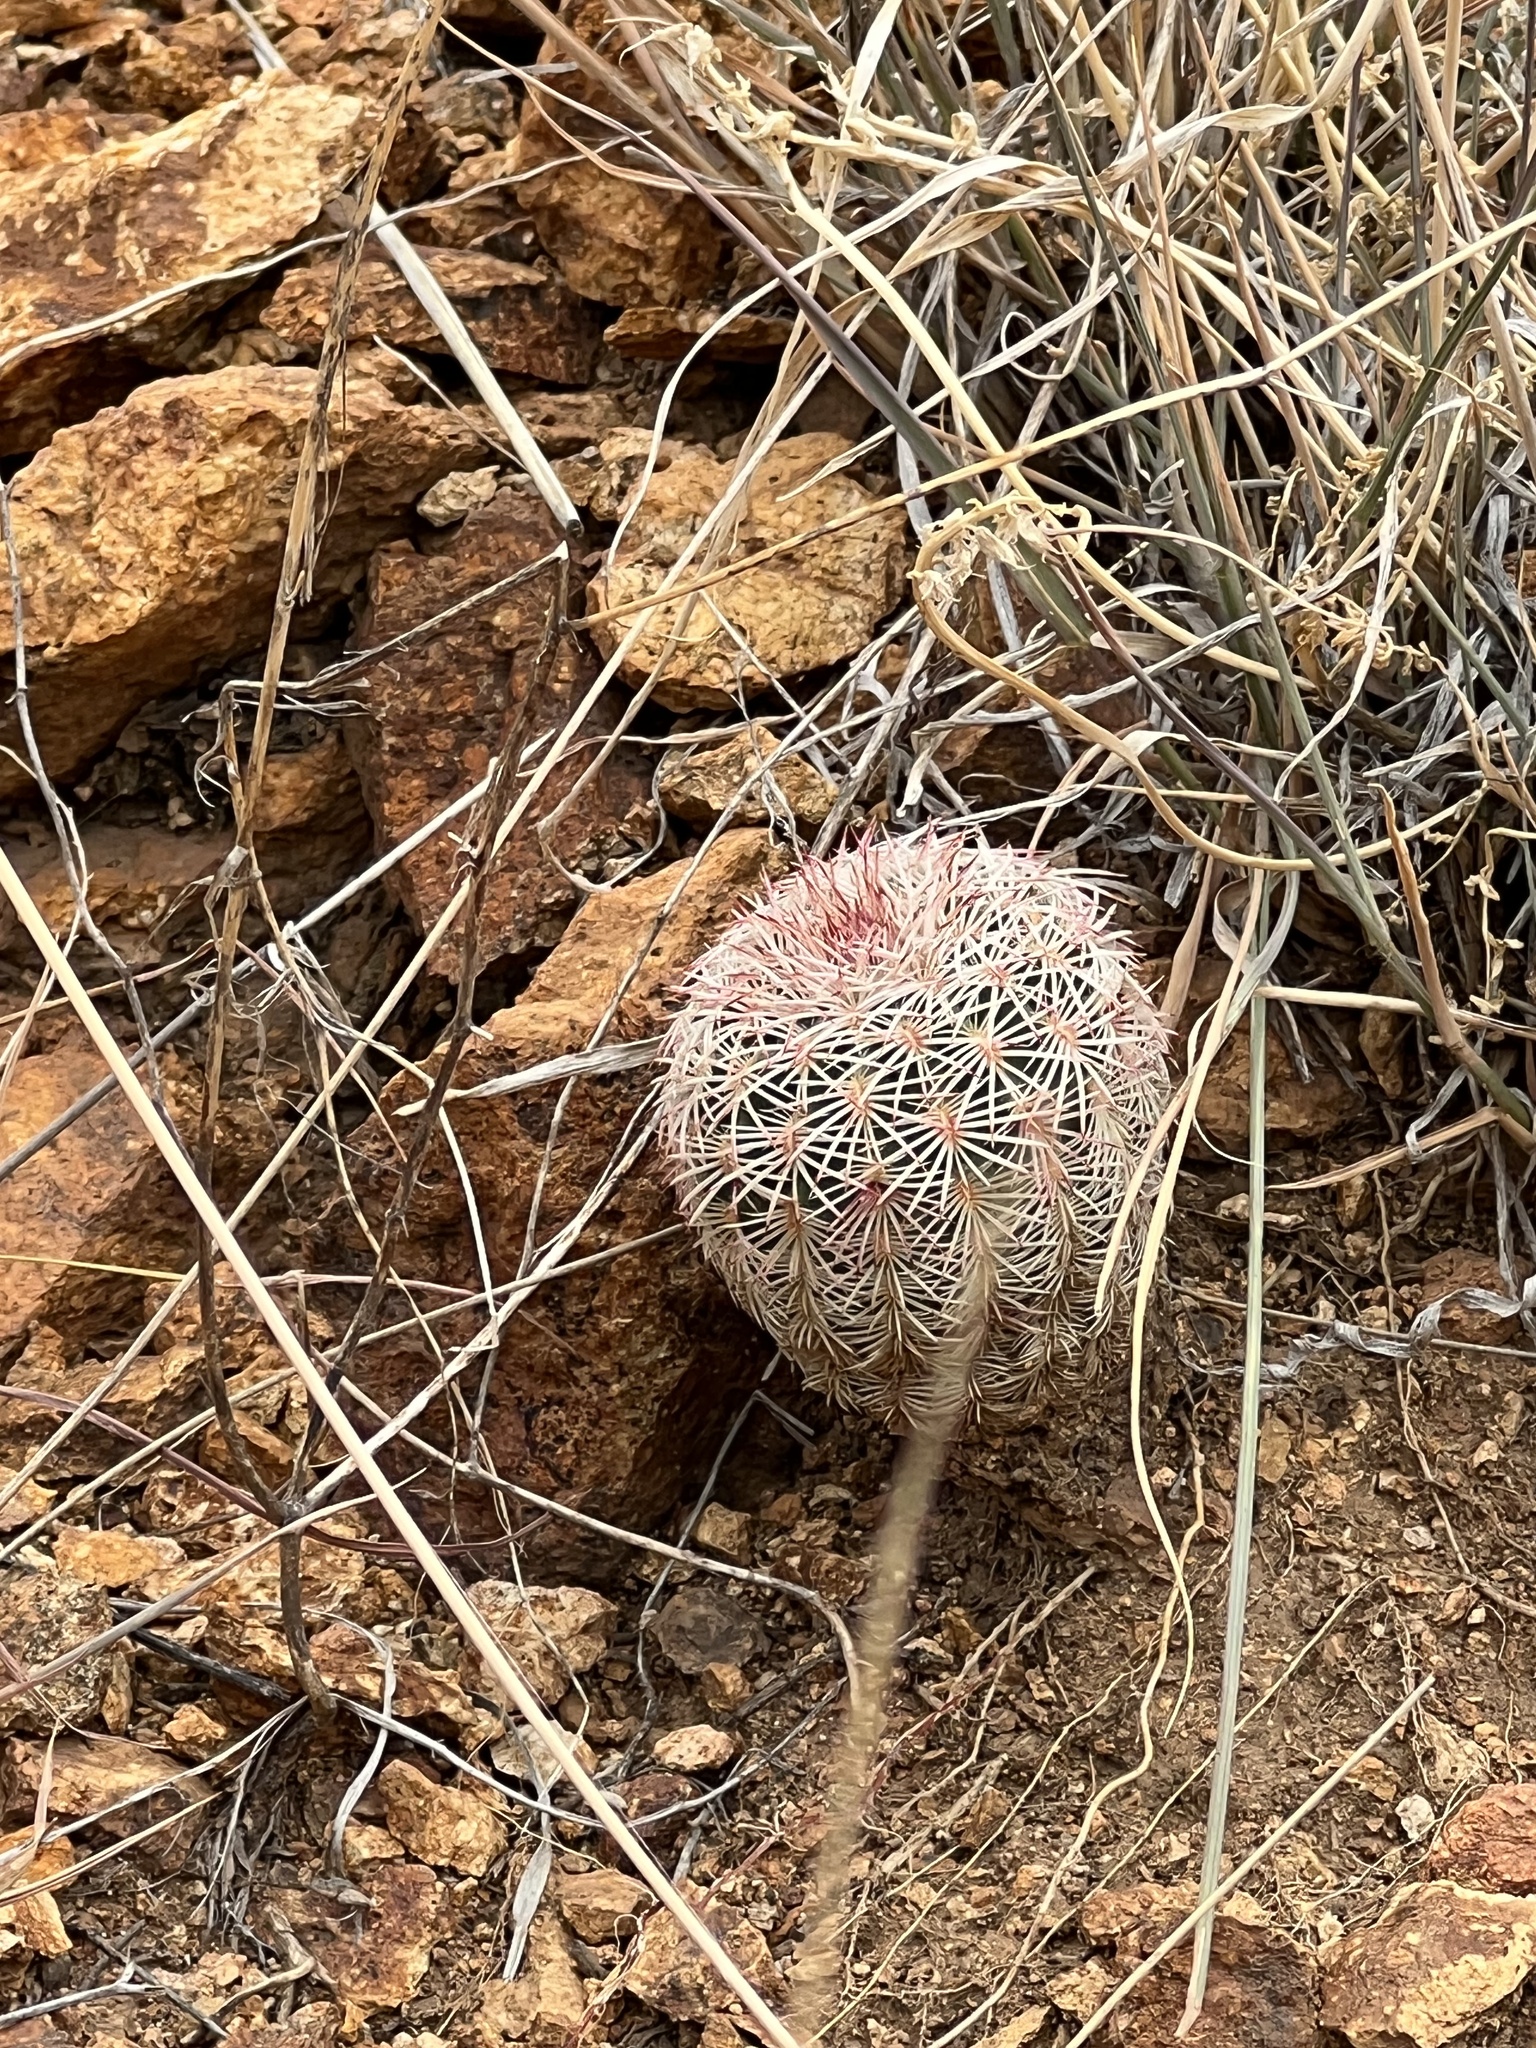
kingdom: Plantae
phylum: Tracheophyta
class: Magnoliopsida
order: Caryophyllales
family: Cactaceae
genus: Echinocereus
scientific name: Echinocereus rigidissimus
